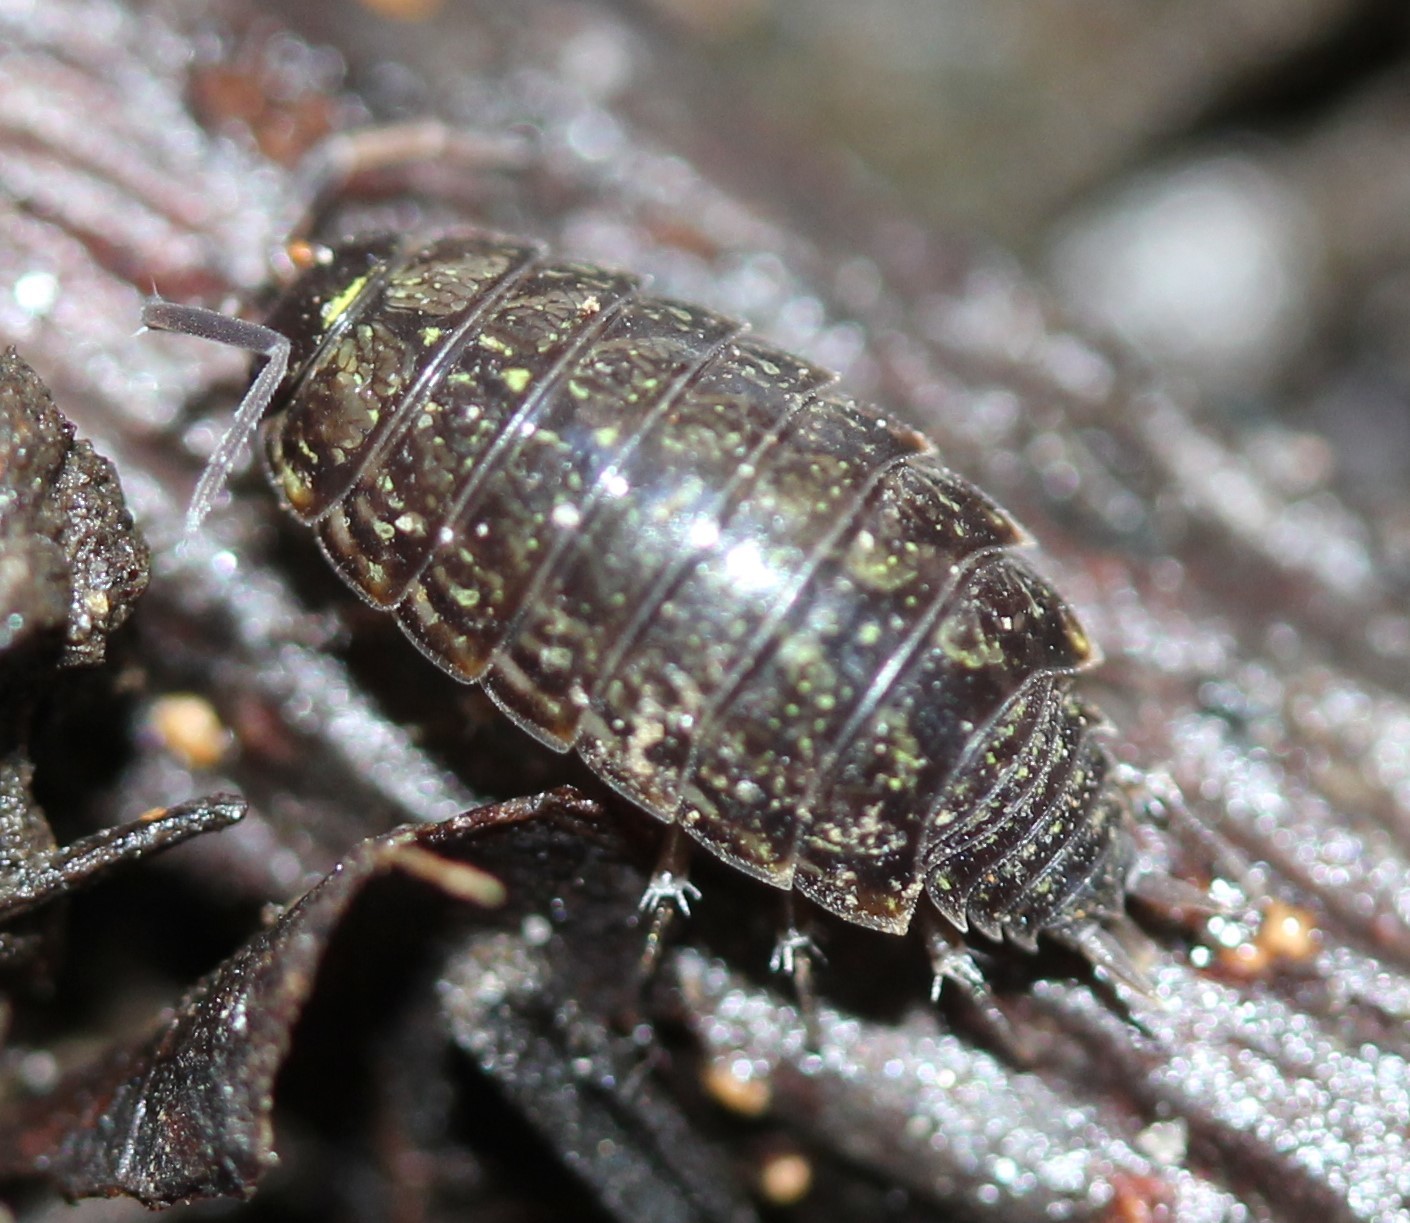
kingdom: Animalia
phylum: Arthropoda
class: Malacostraca
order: Isopoda
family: Philosciidae
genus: Philoscia
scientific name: Philoscia muscorum
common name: Common striped woodlouse
